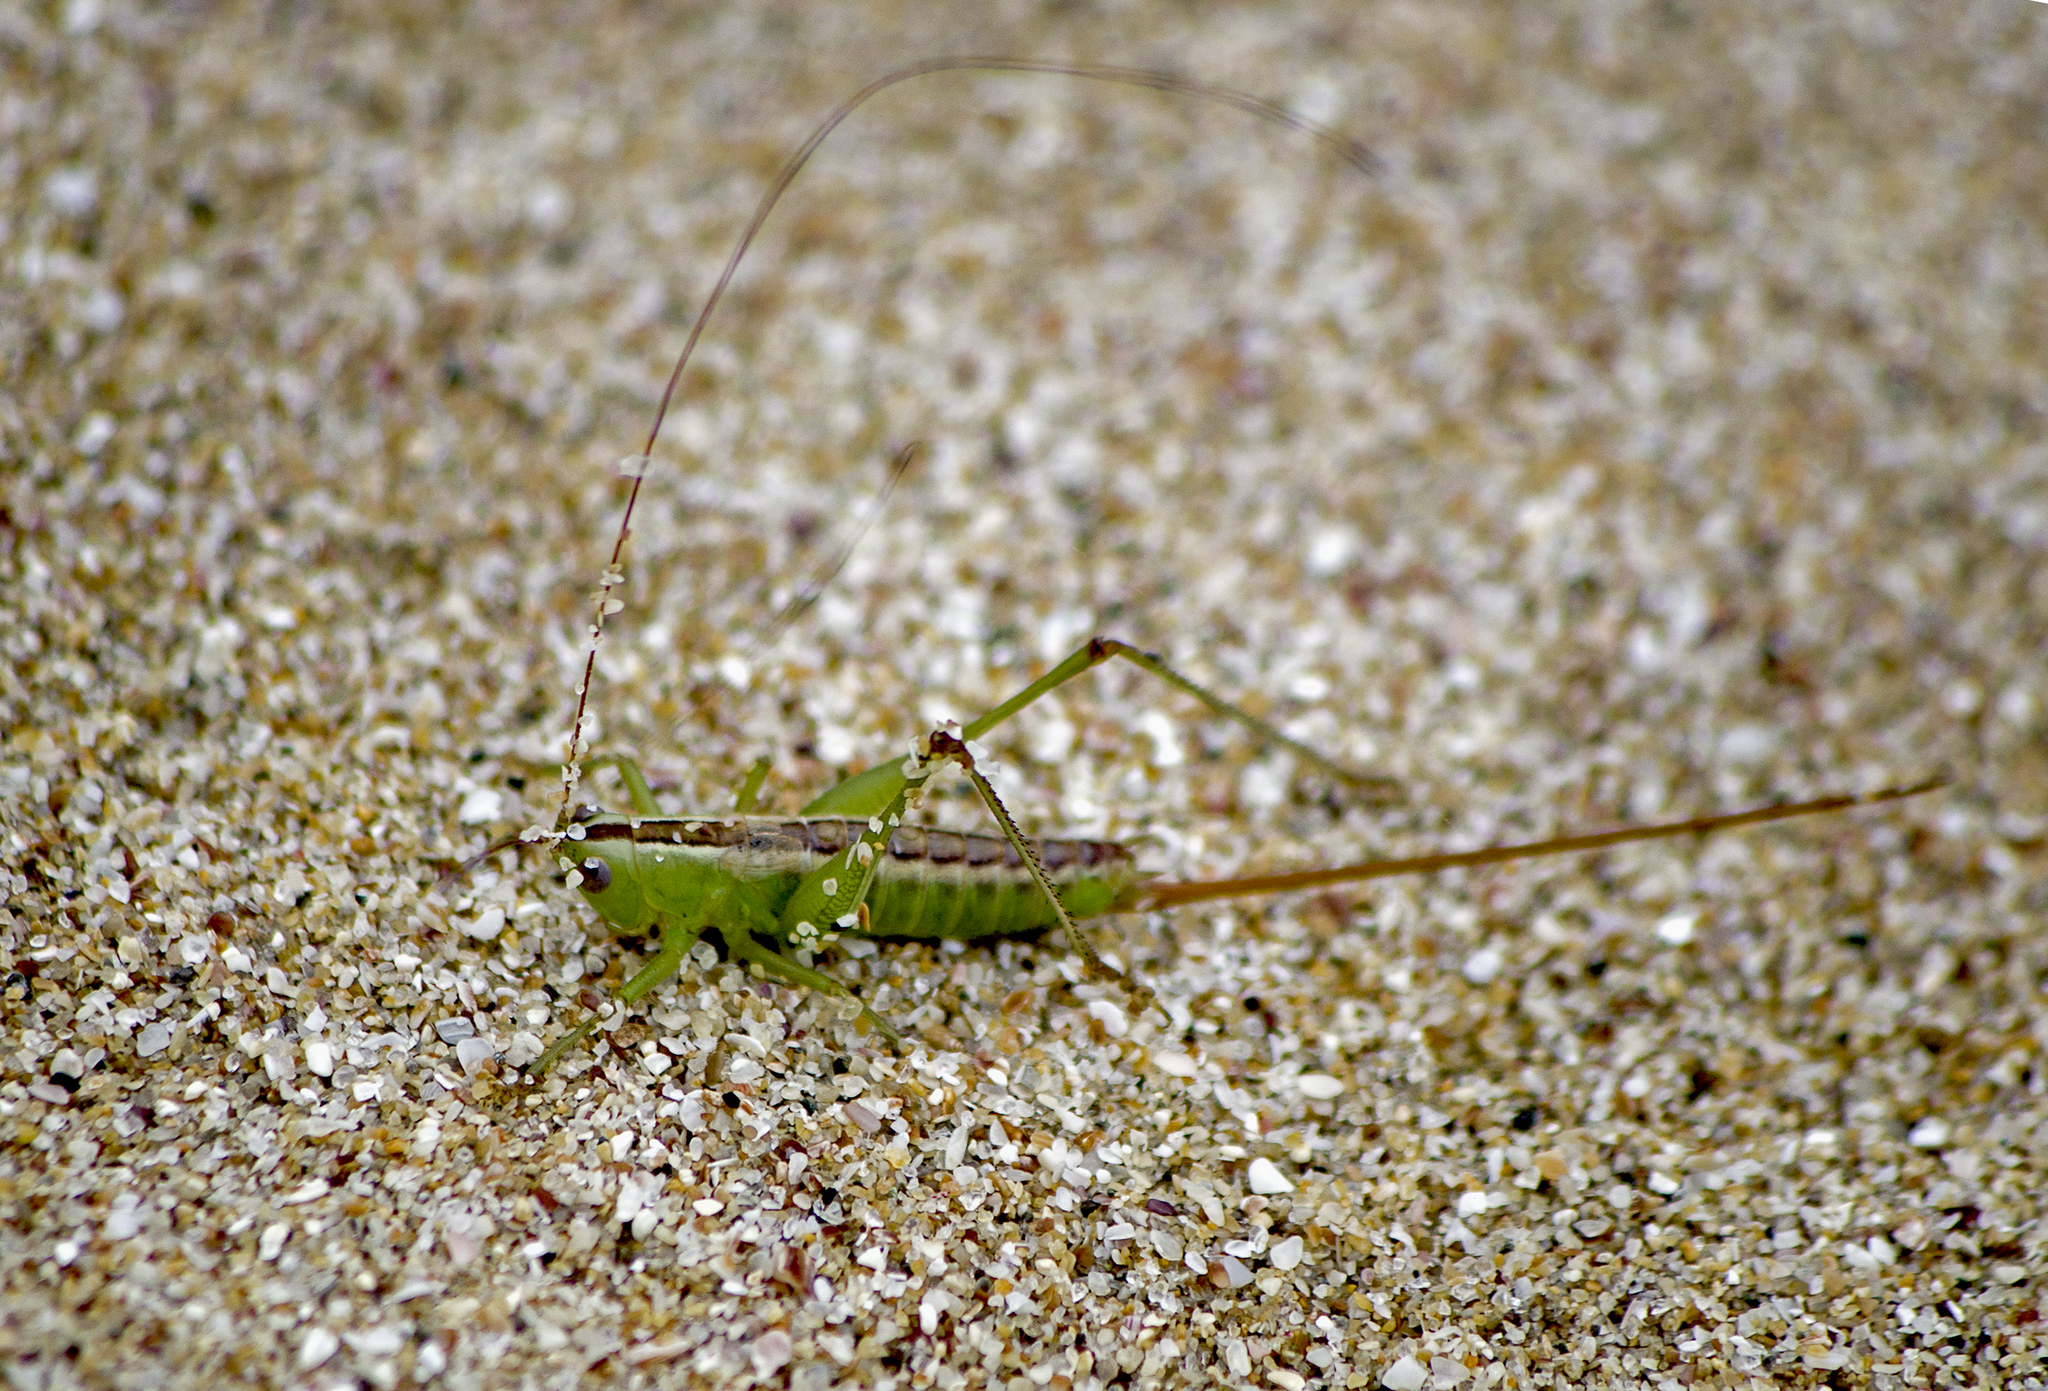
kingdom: Animalia
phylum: Arthropoda
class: Insecta
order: Orthoptera
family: Tettigoniidae
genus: Conocephalus
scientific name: Conocephalus hastatus
